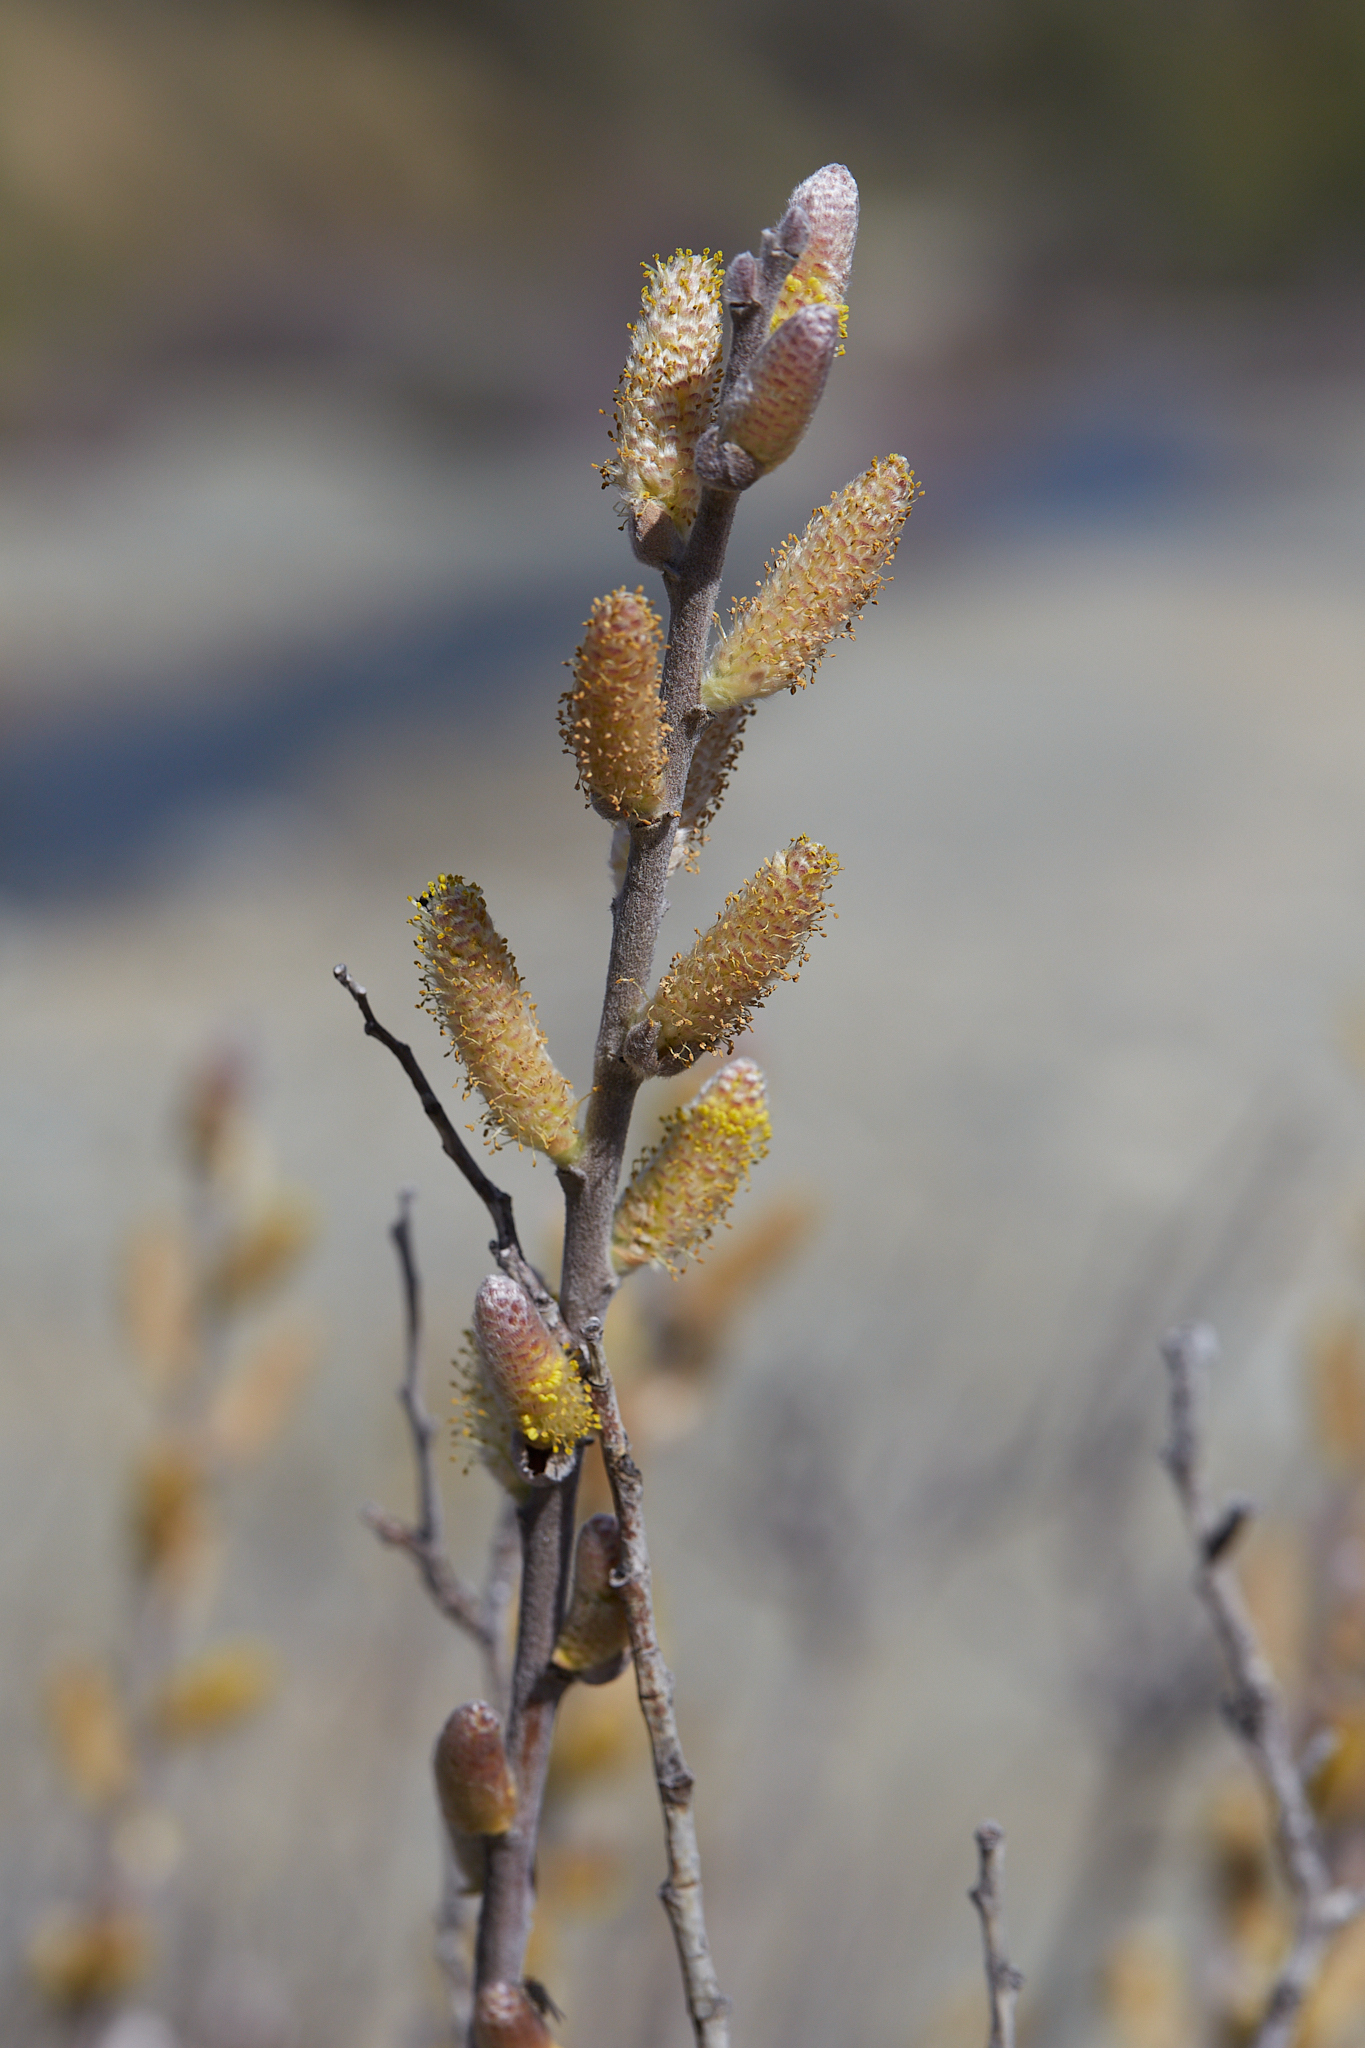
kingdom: Plantae
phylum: Tracheophyta
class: Magnoliopsida
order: Malpighiales
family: Salicaceae
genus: Salix
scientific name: Salix breweri
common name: Brewer’s willow
